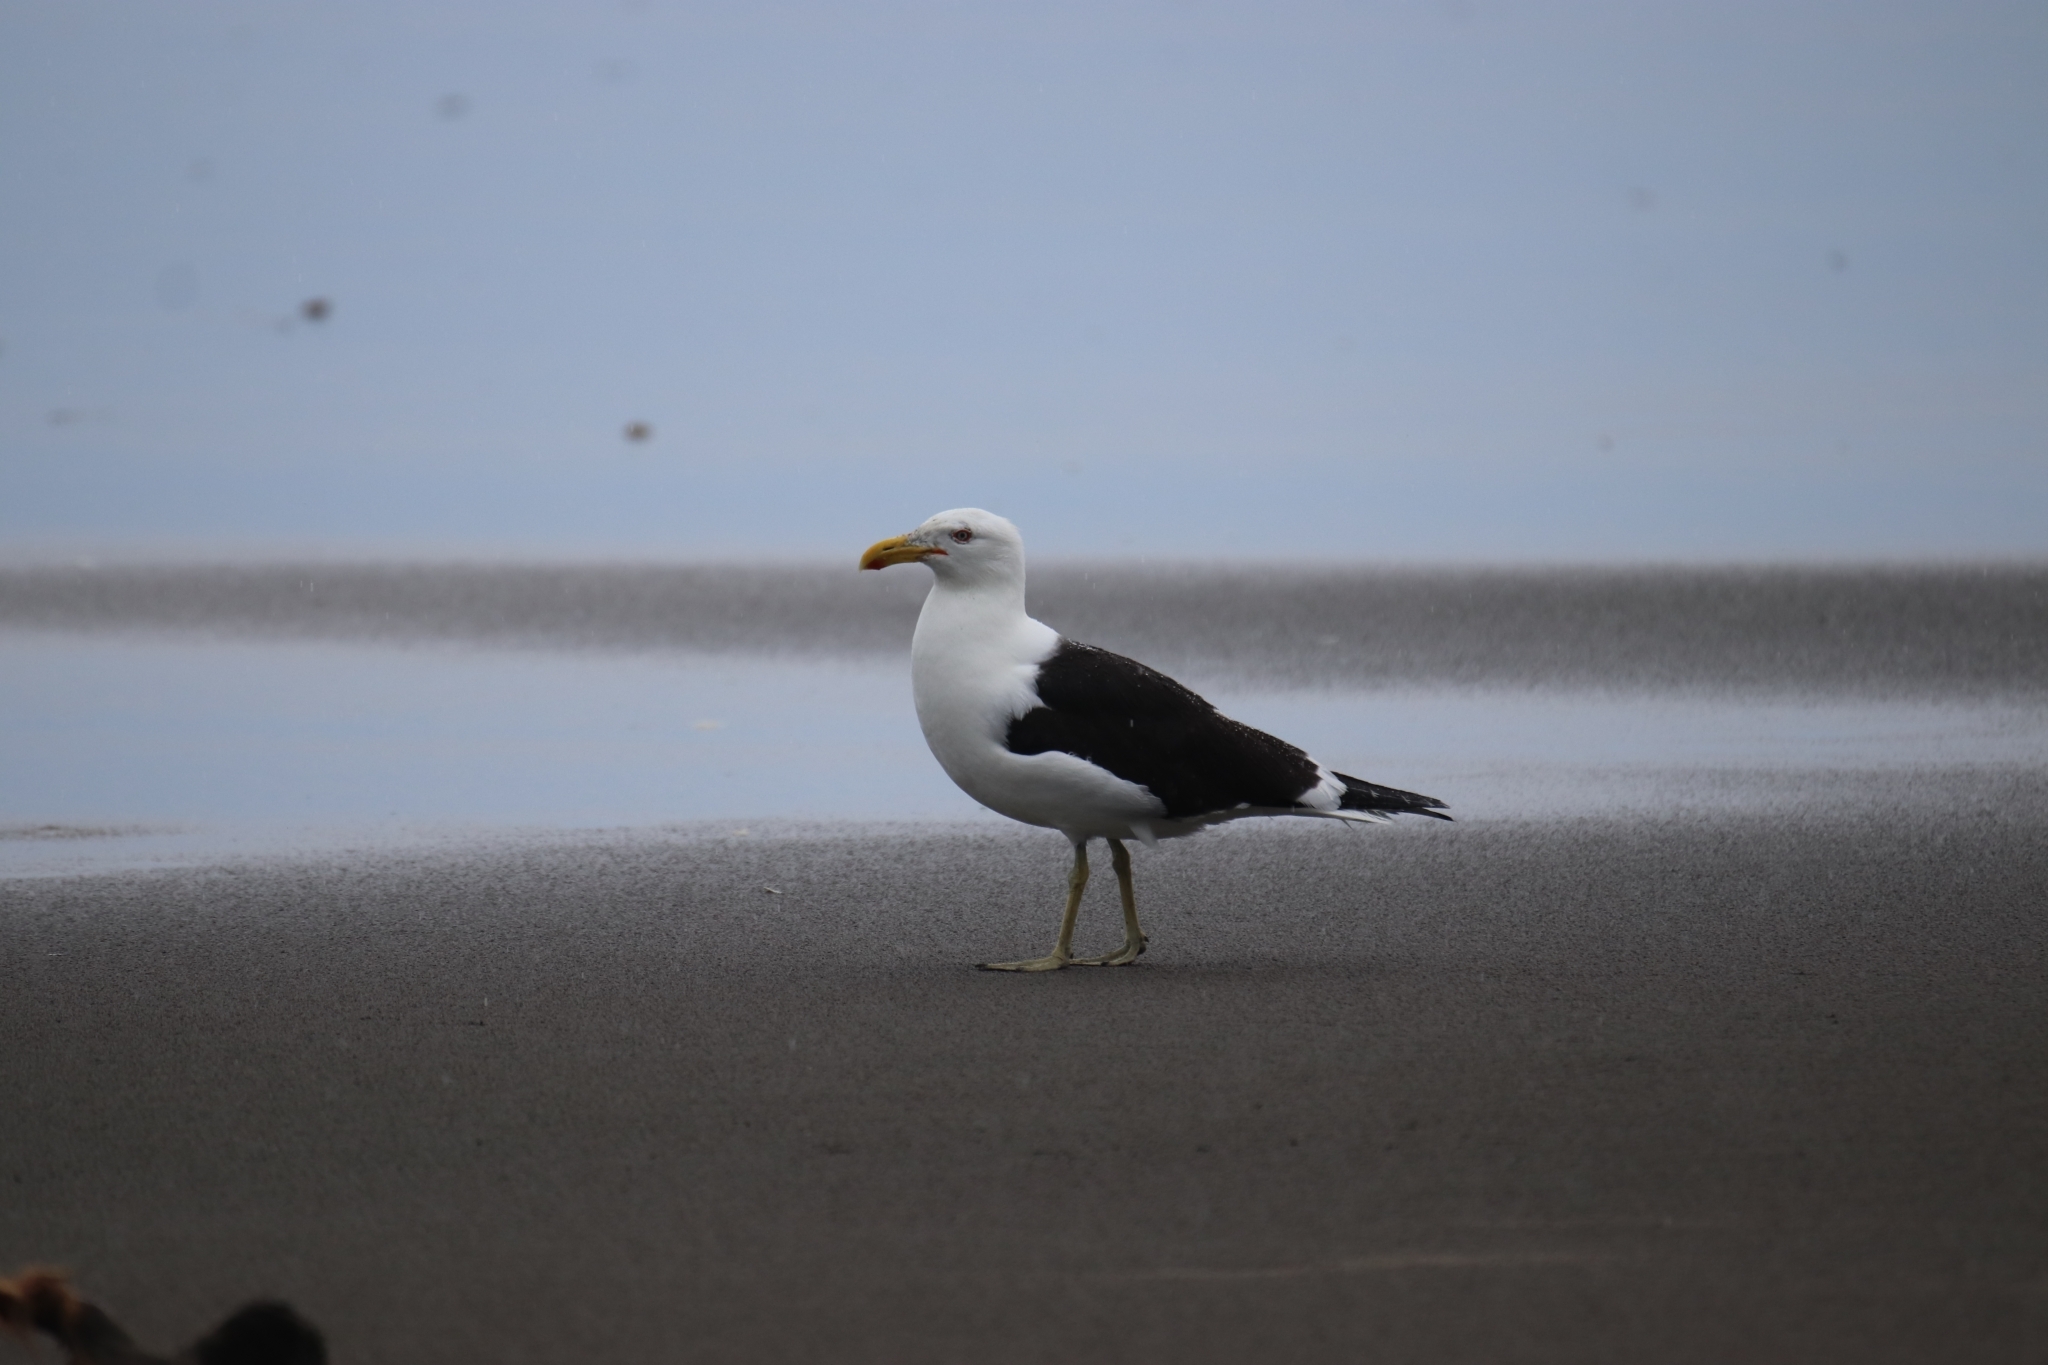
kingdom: Animalia
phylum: Chordata
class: Aves
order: Charadriiformes
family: Laridae
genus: Larus
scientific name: Larus dominicanus
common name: Kelp gull
